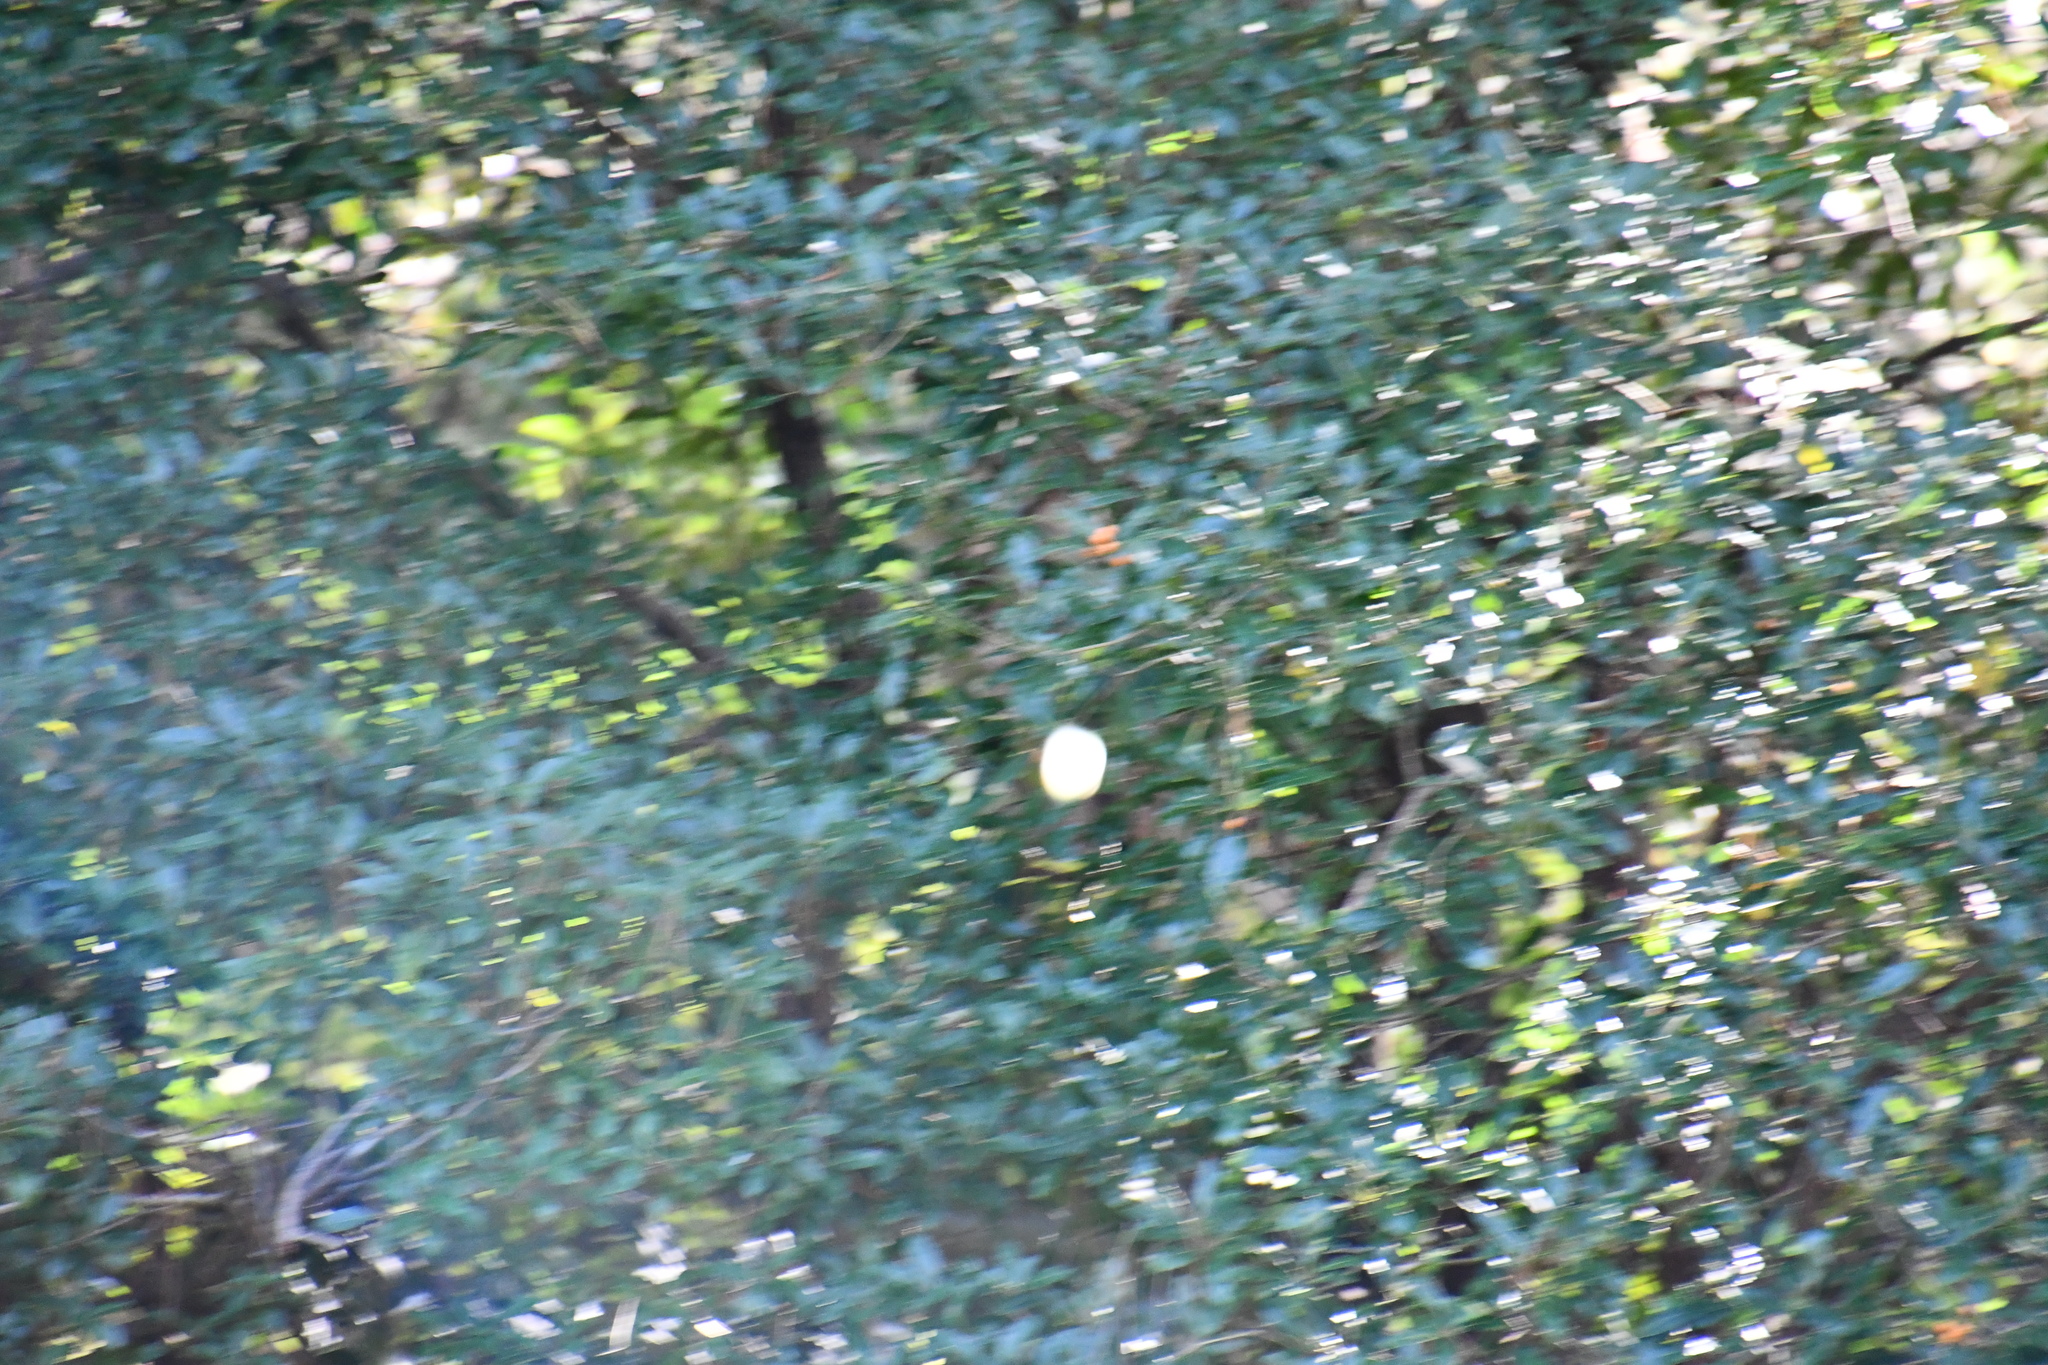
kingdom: Animalia
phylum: Arthropoda
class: Insecta
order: Lepidoptera
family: Pieridae
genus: Pieris
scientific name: Pieris rapae
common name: Small white
